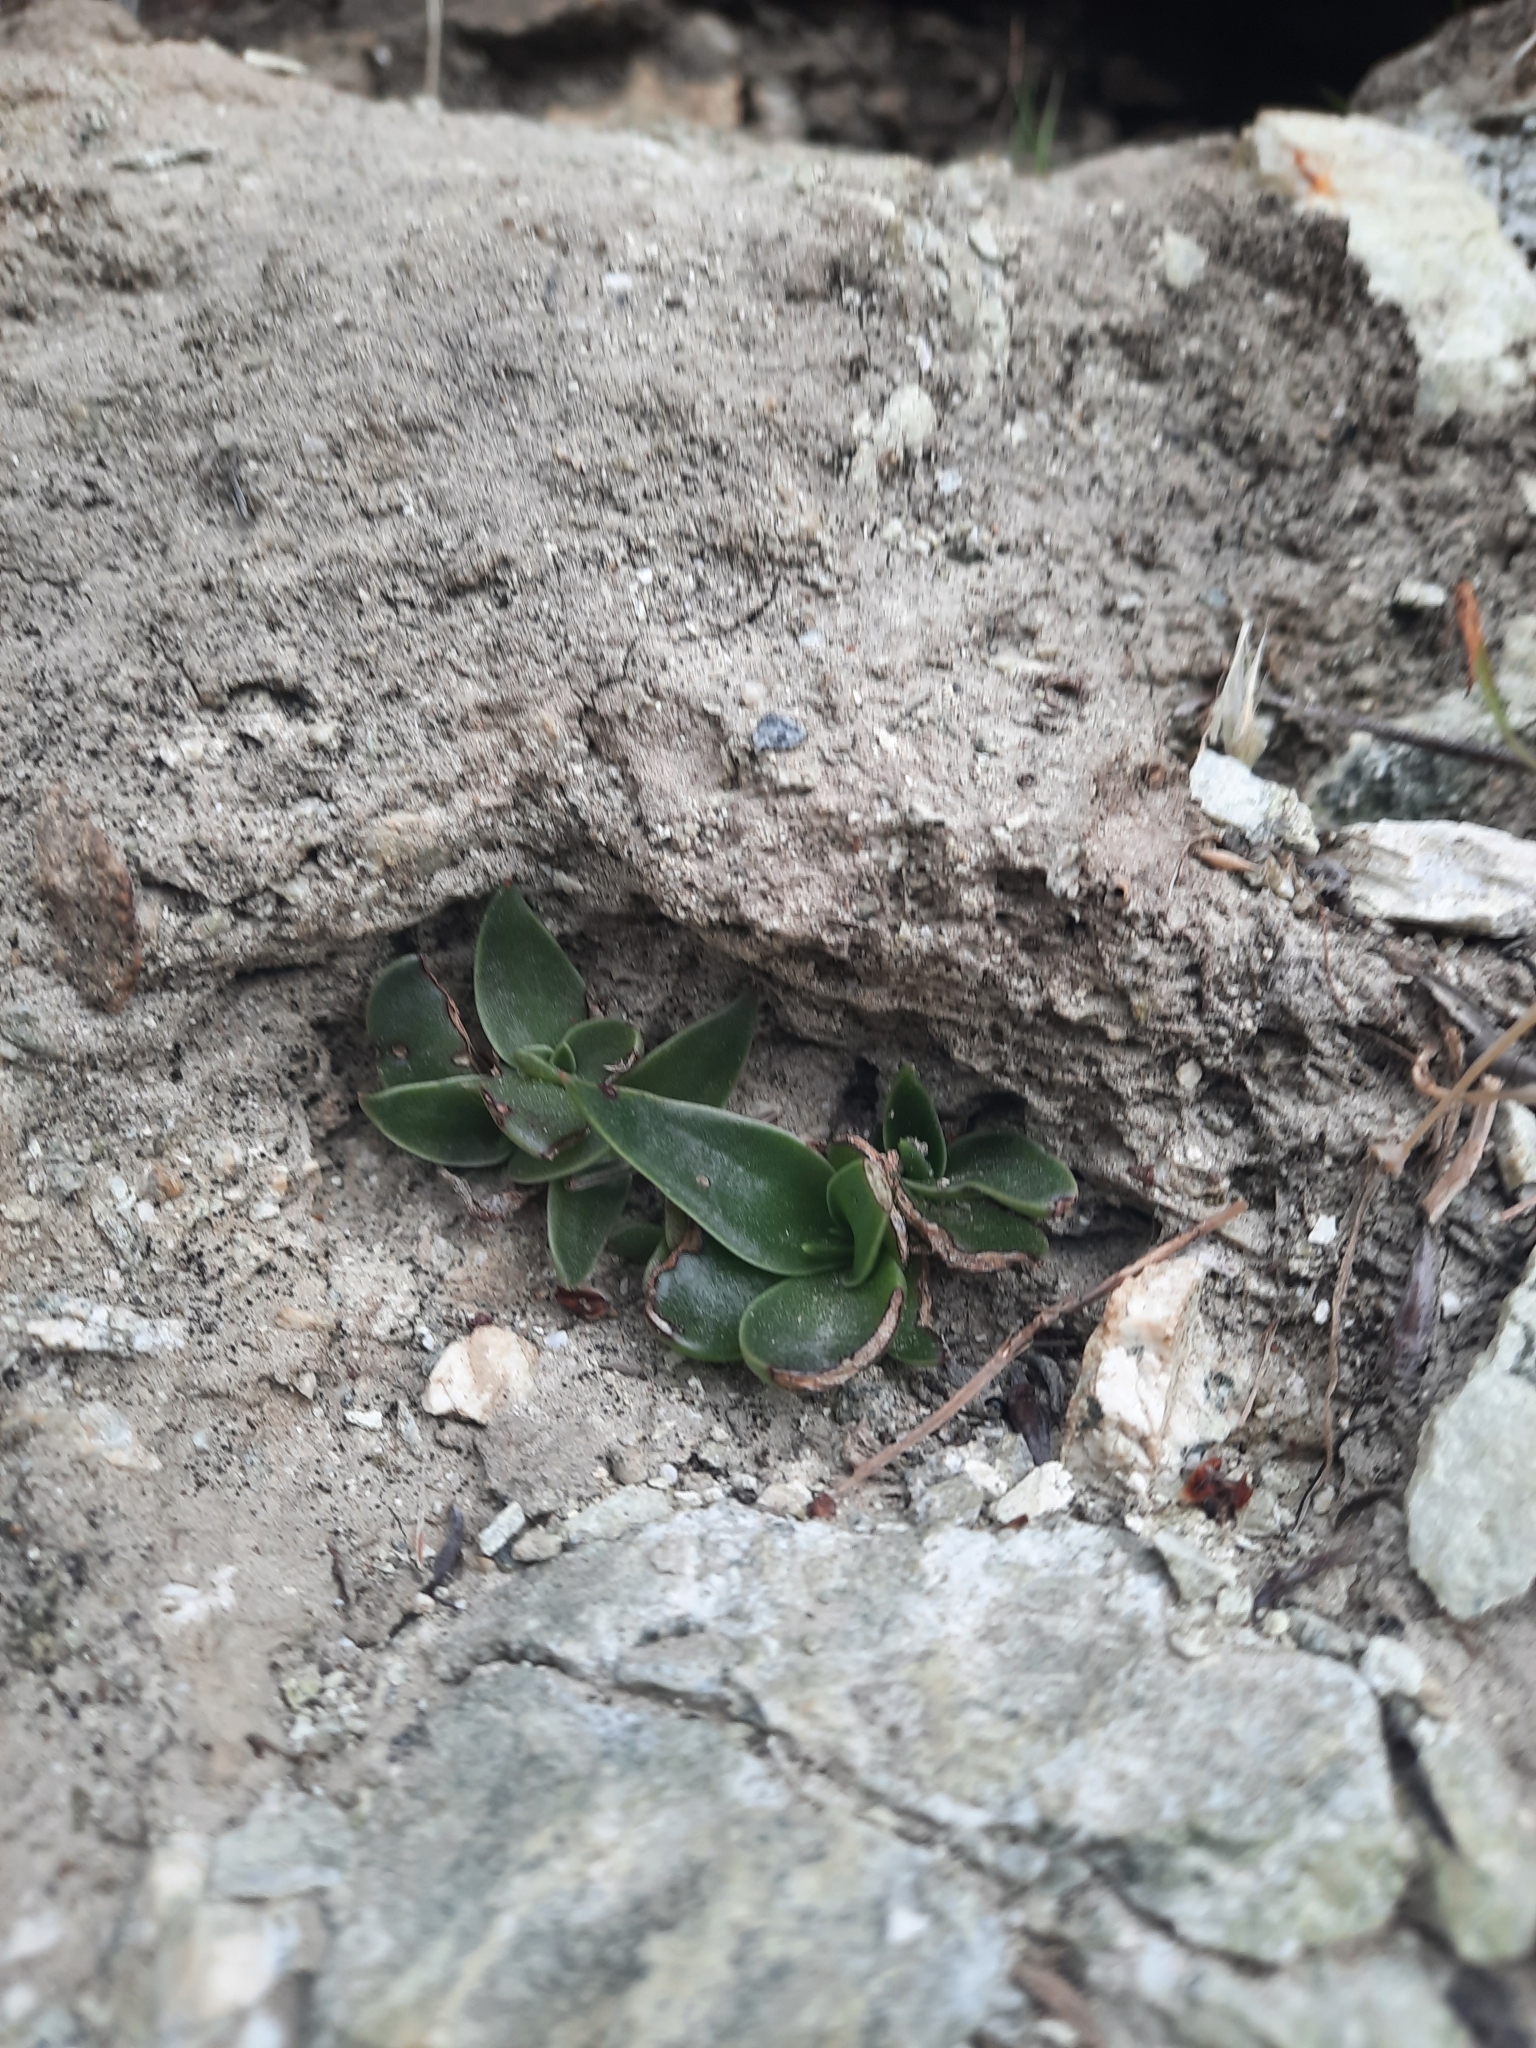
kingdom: Plantae
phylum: Tracheophyta
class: Magnoliopsida
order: Saxifragales
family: Crassulaceae
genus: Dudleya
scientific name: Dudleya lanceolata
